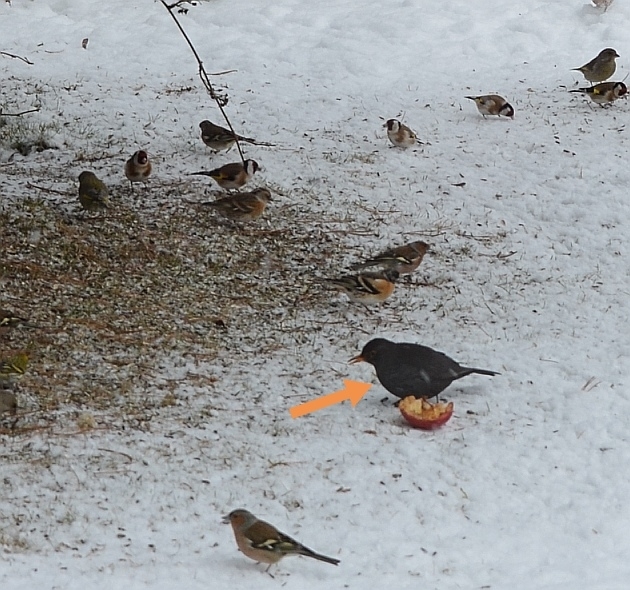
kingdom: Animalia
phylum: Chordata
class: Aves
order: Passeriformes
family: Turdidae
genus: Turdus
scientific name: Turdus merula
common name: Common blackbird
